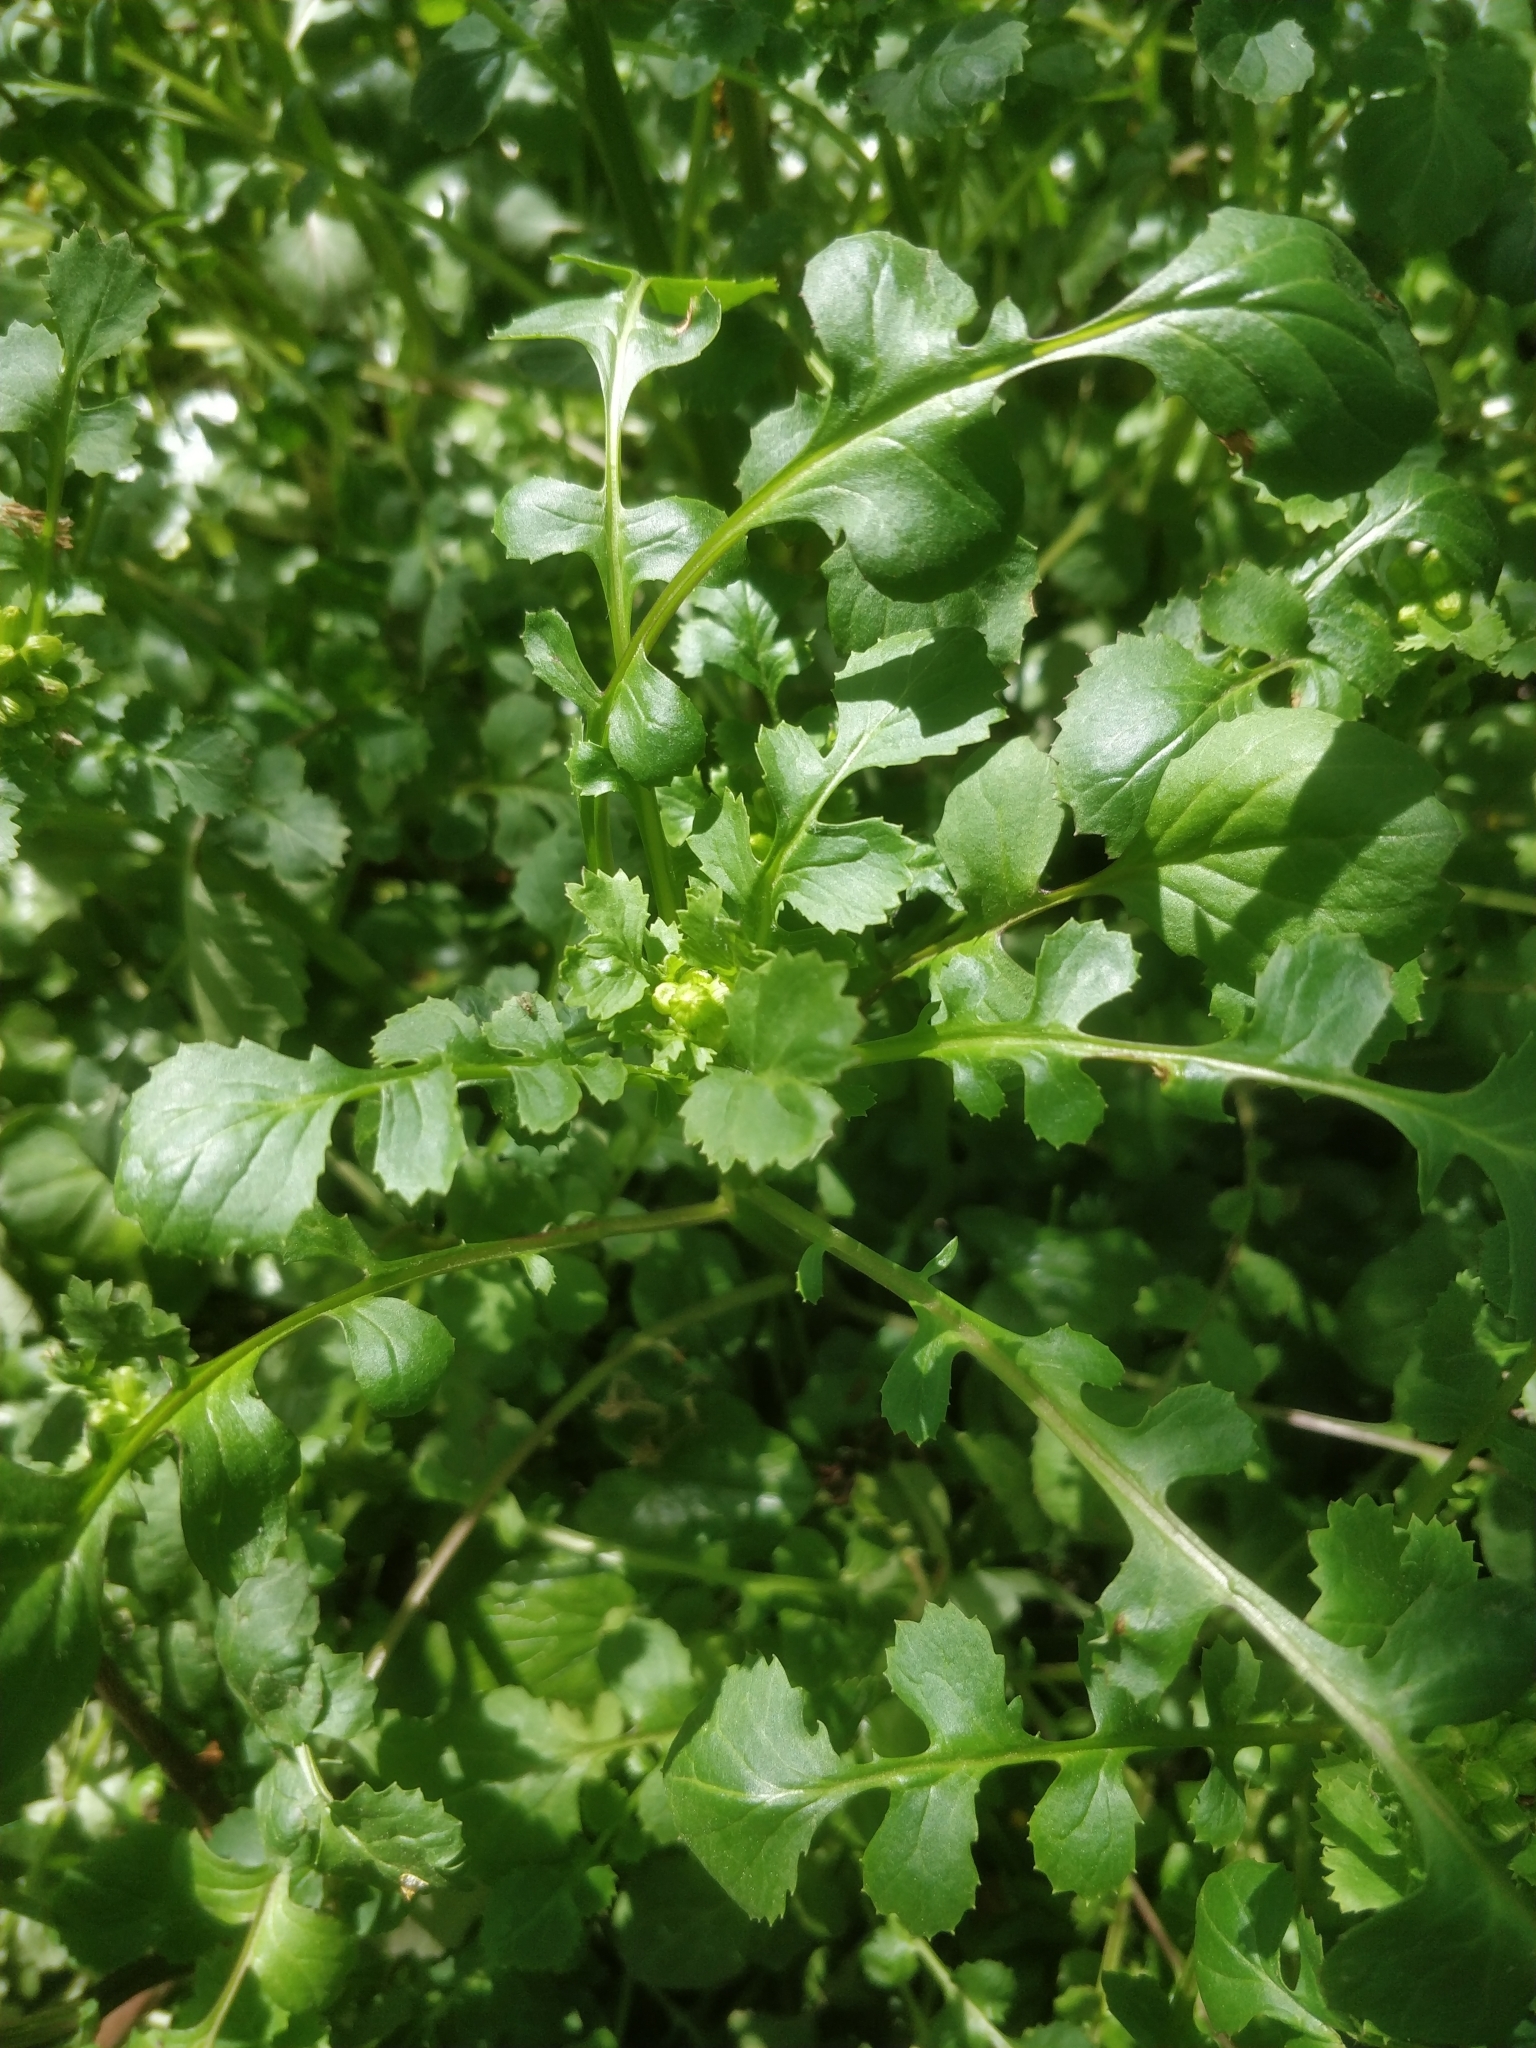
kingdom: Plantae
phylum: Tracheophyta
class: Magnoliopsida
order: Asterales
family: Asteraceae
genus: Packera
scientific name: Packera glabella
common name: Butterweed
